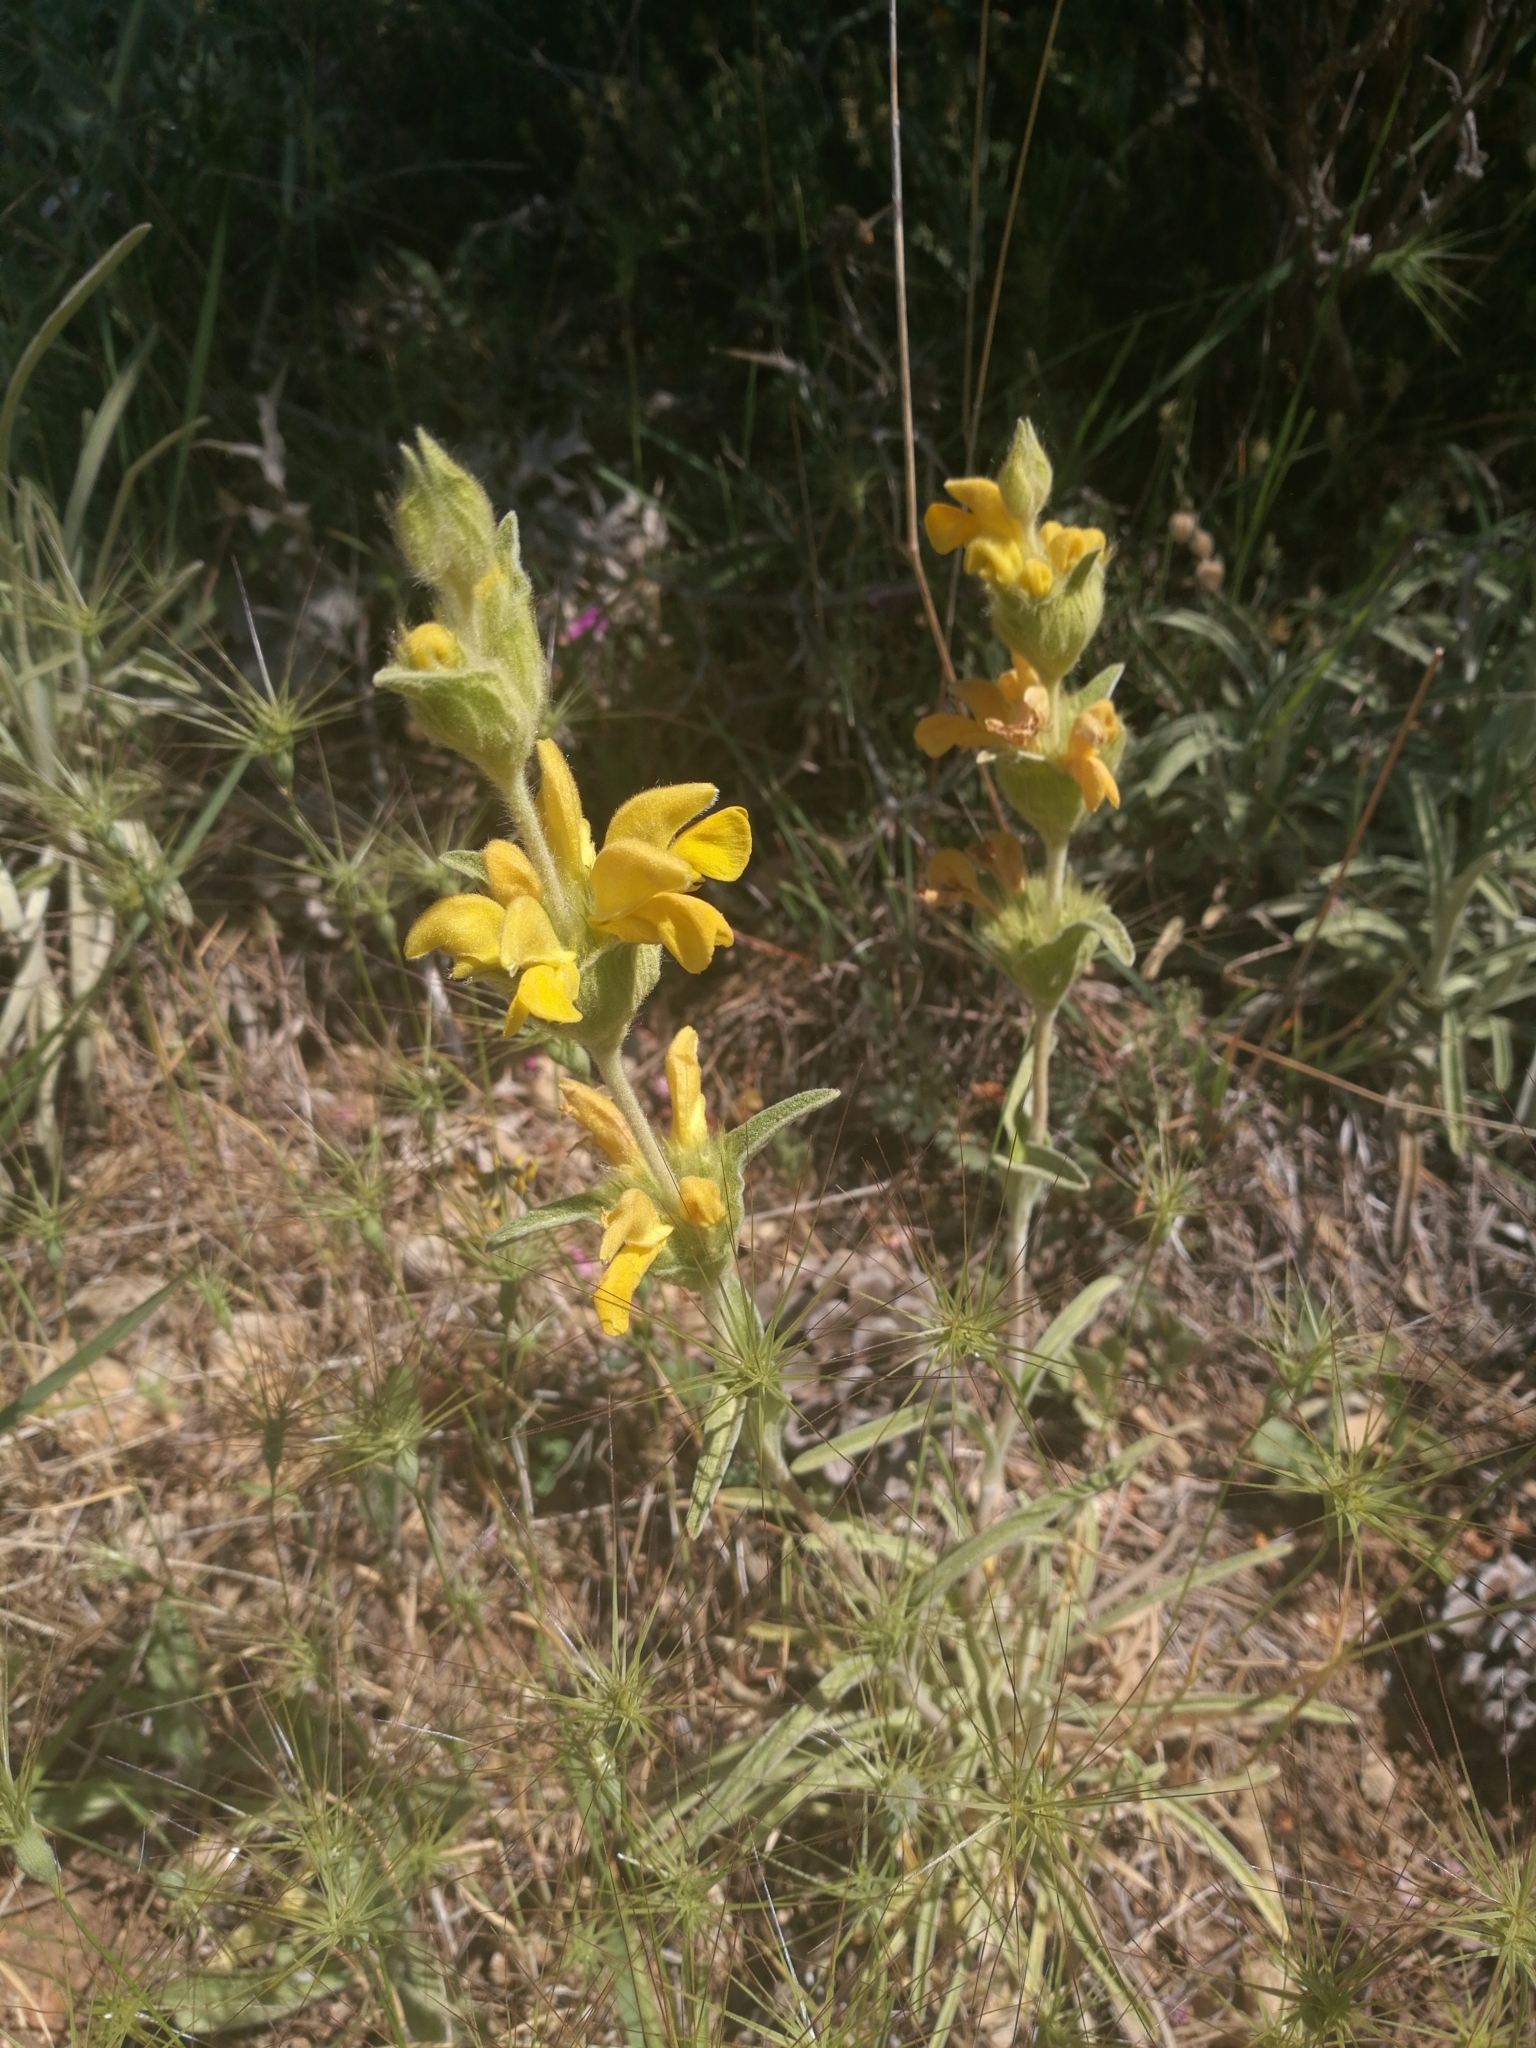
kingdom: Plantae
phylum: Tracheophyta
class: Magnoliopsida
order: Lamiales
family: Lamiaceae
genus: Phlomis
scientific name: Phlomis lychnitis
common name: Lampwickplant
